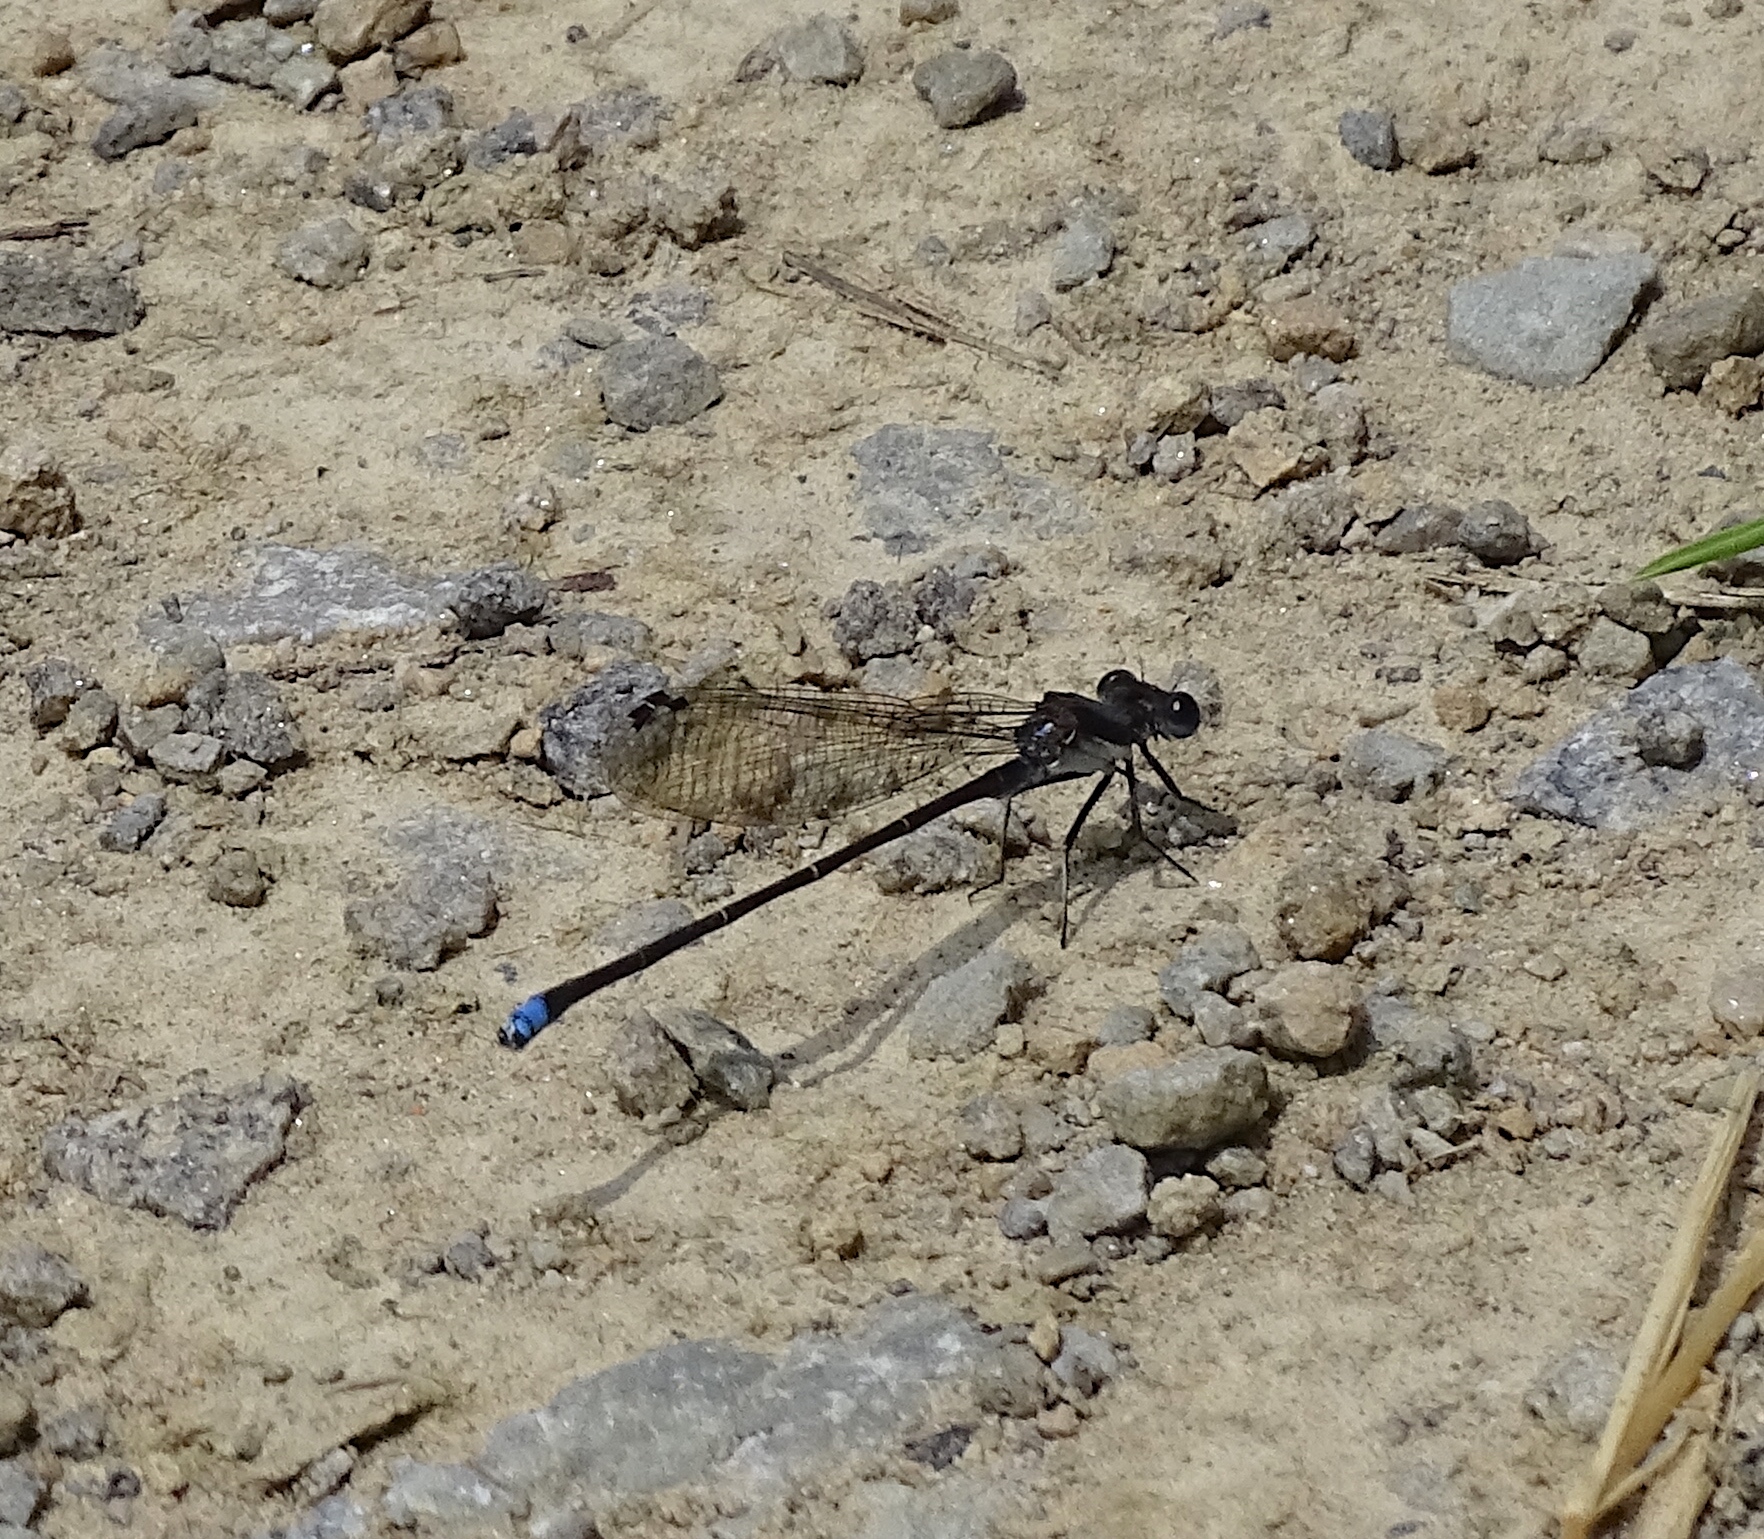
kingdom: Animalia
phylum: Arthropoda
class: Insecta
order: Odonata
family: Coenagrionidae
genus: Argia
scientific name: Argia tibialis
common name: Blue-tipped dancer
